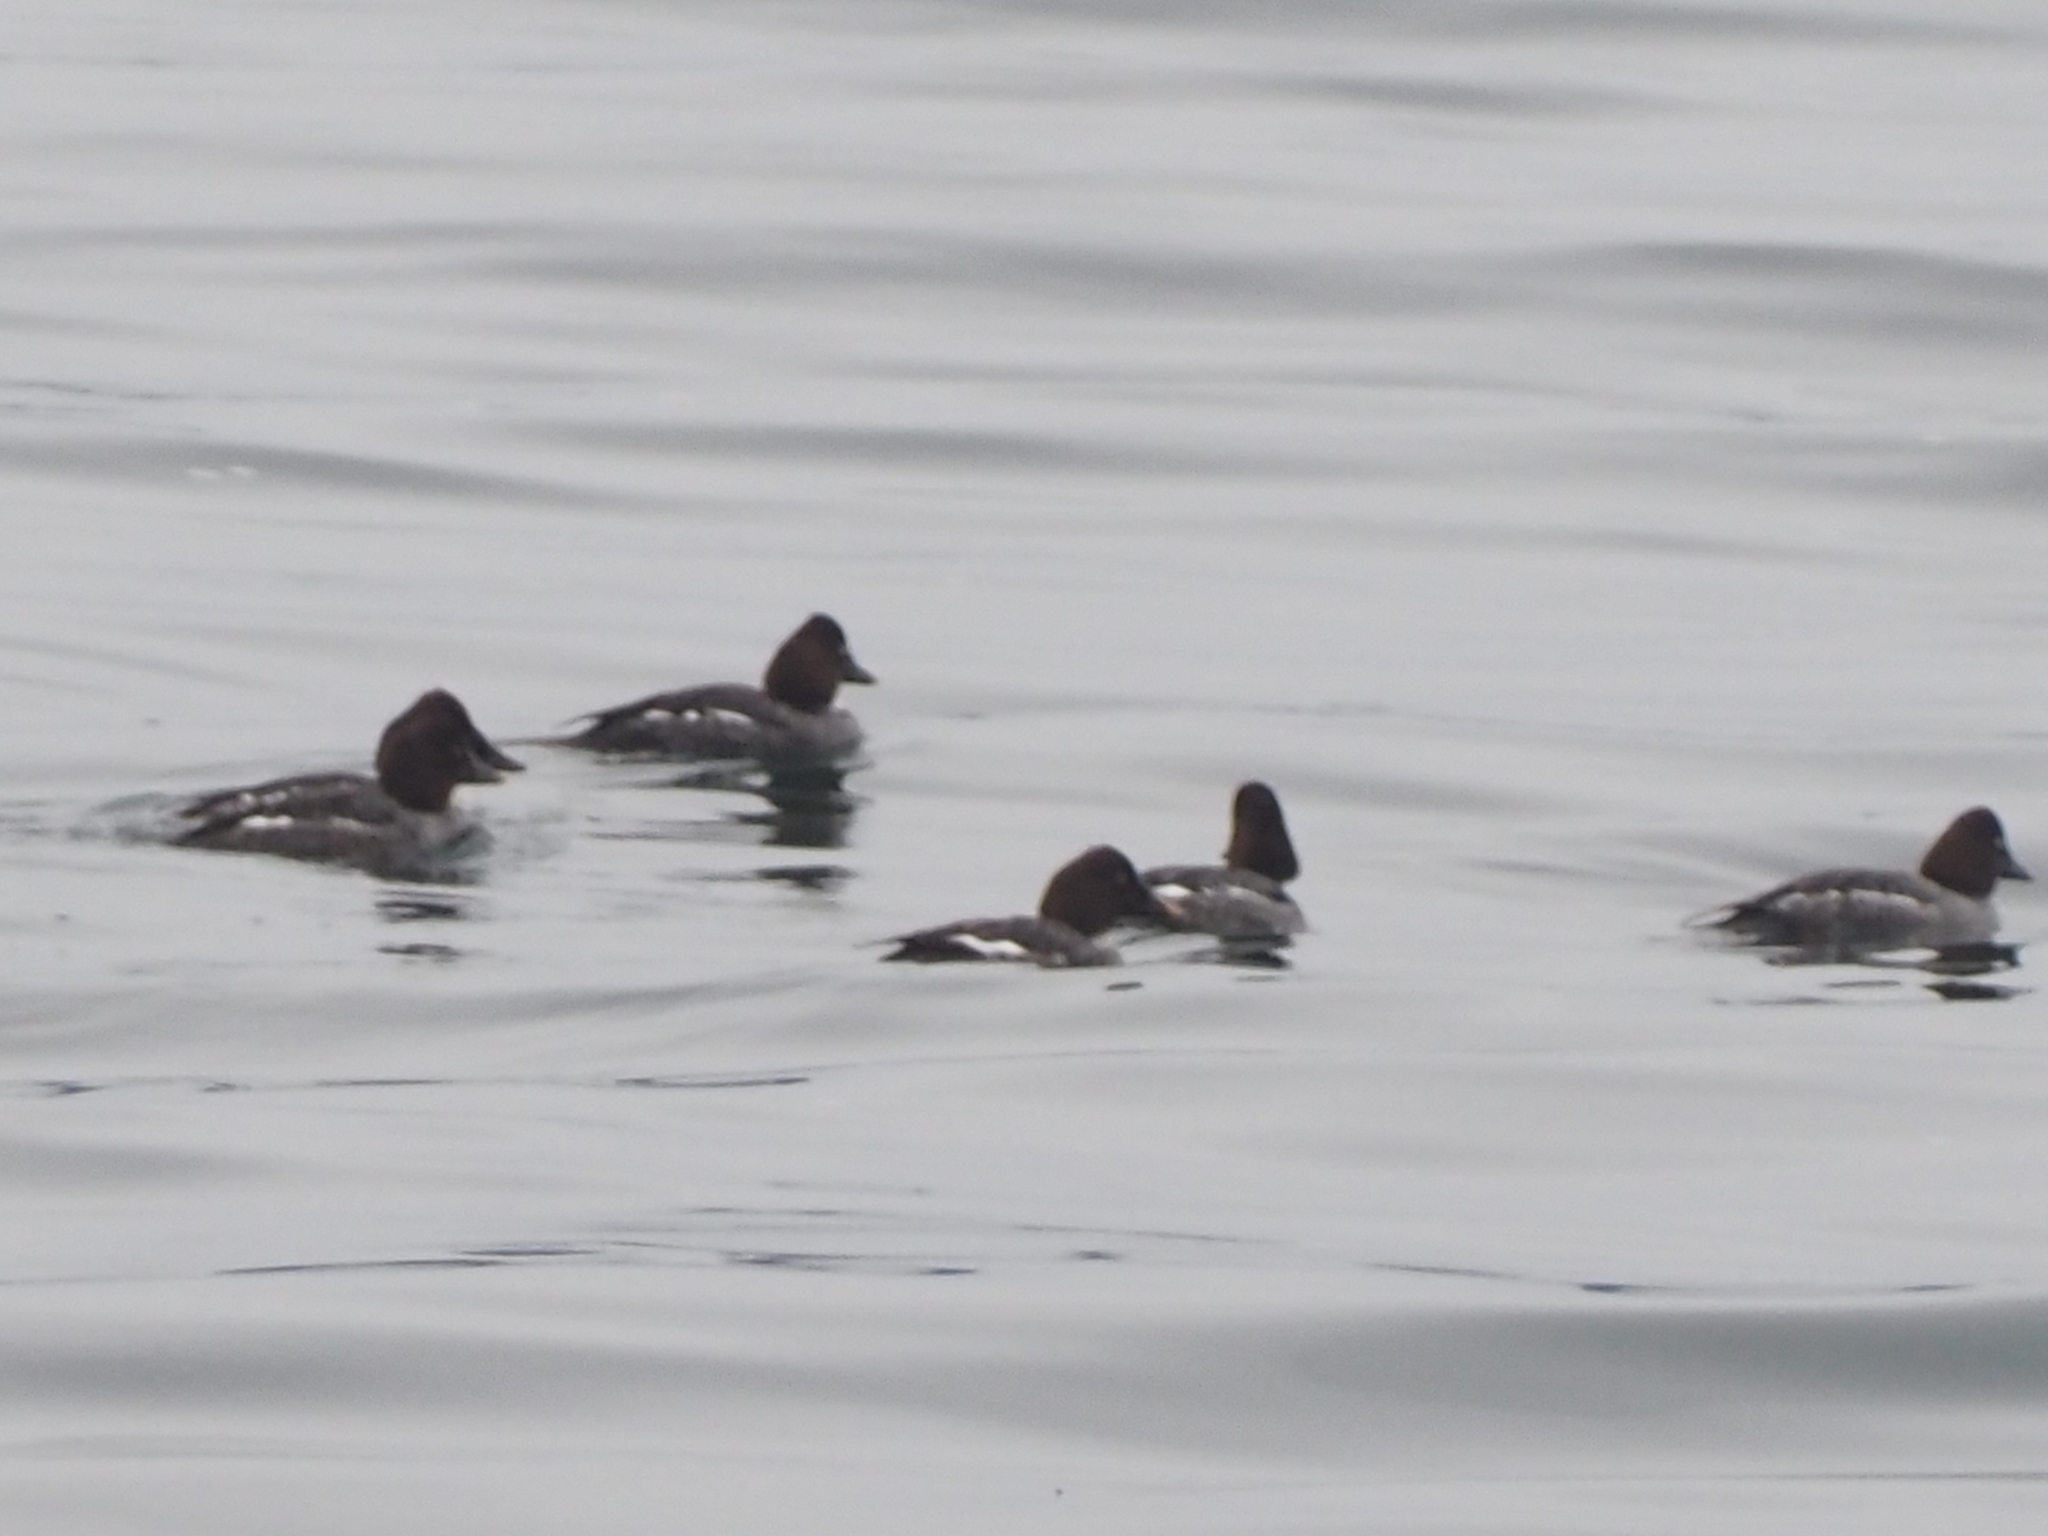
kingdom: Animalia
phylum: Chordata
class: Aves
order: Anseriformes
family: Anatidae
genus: Bucephala
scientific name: Bucephala clangula
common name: Common goldeneye
